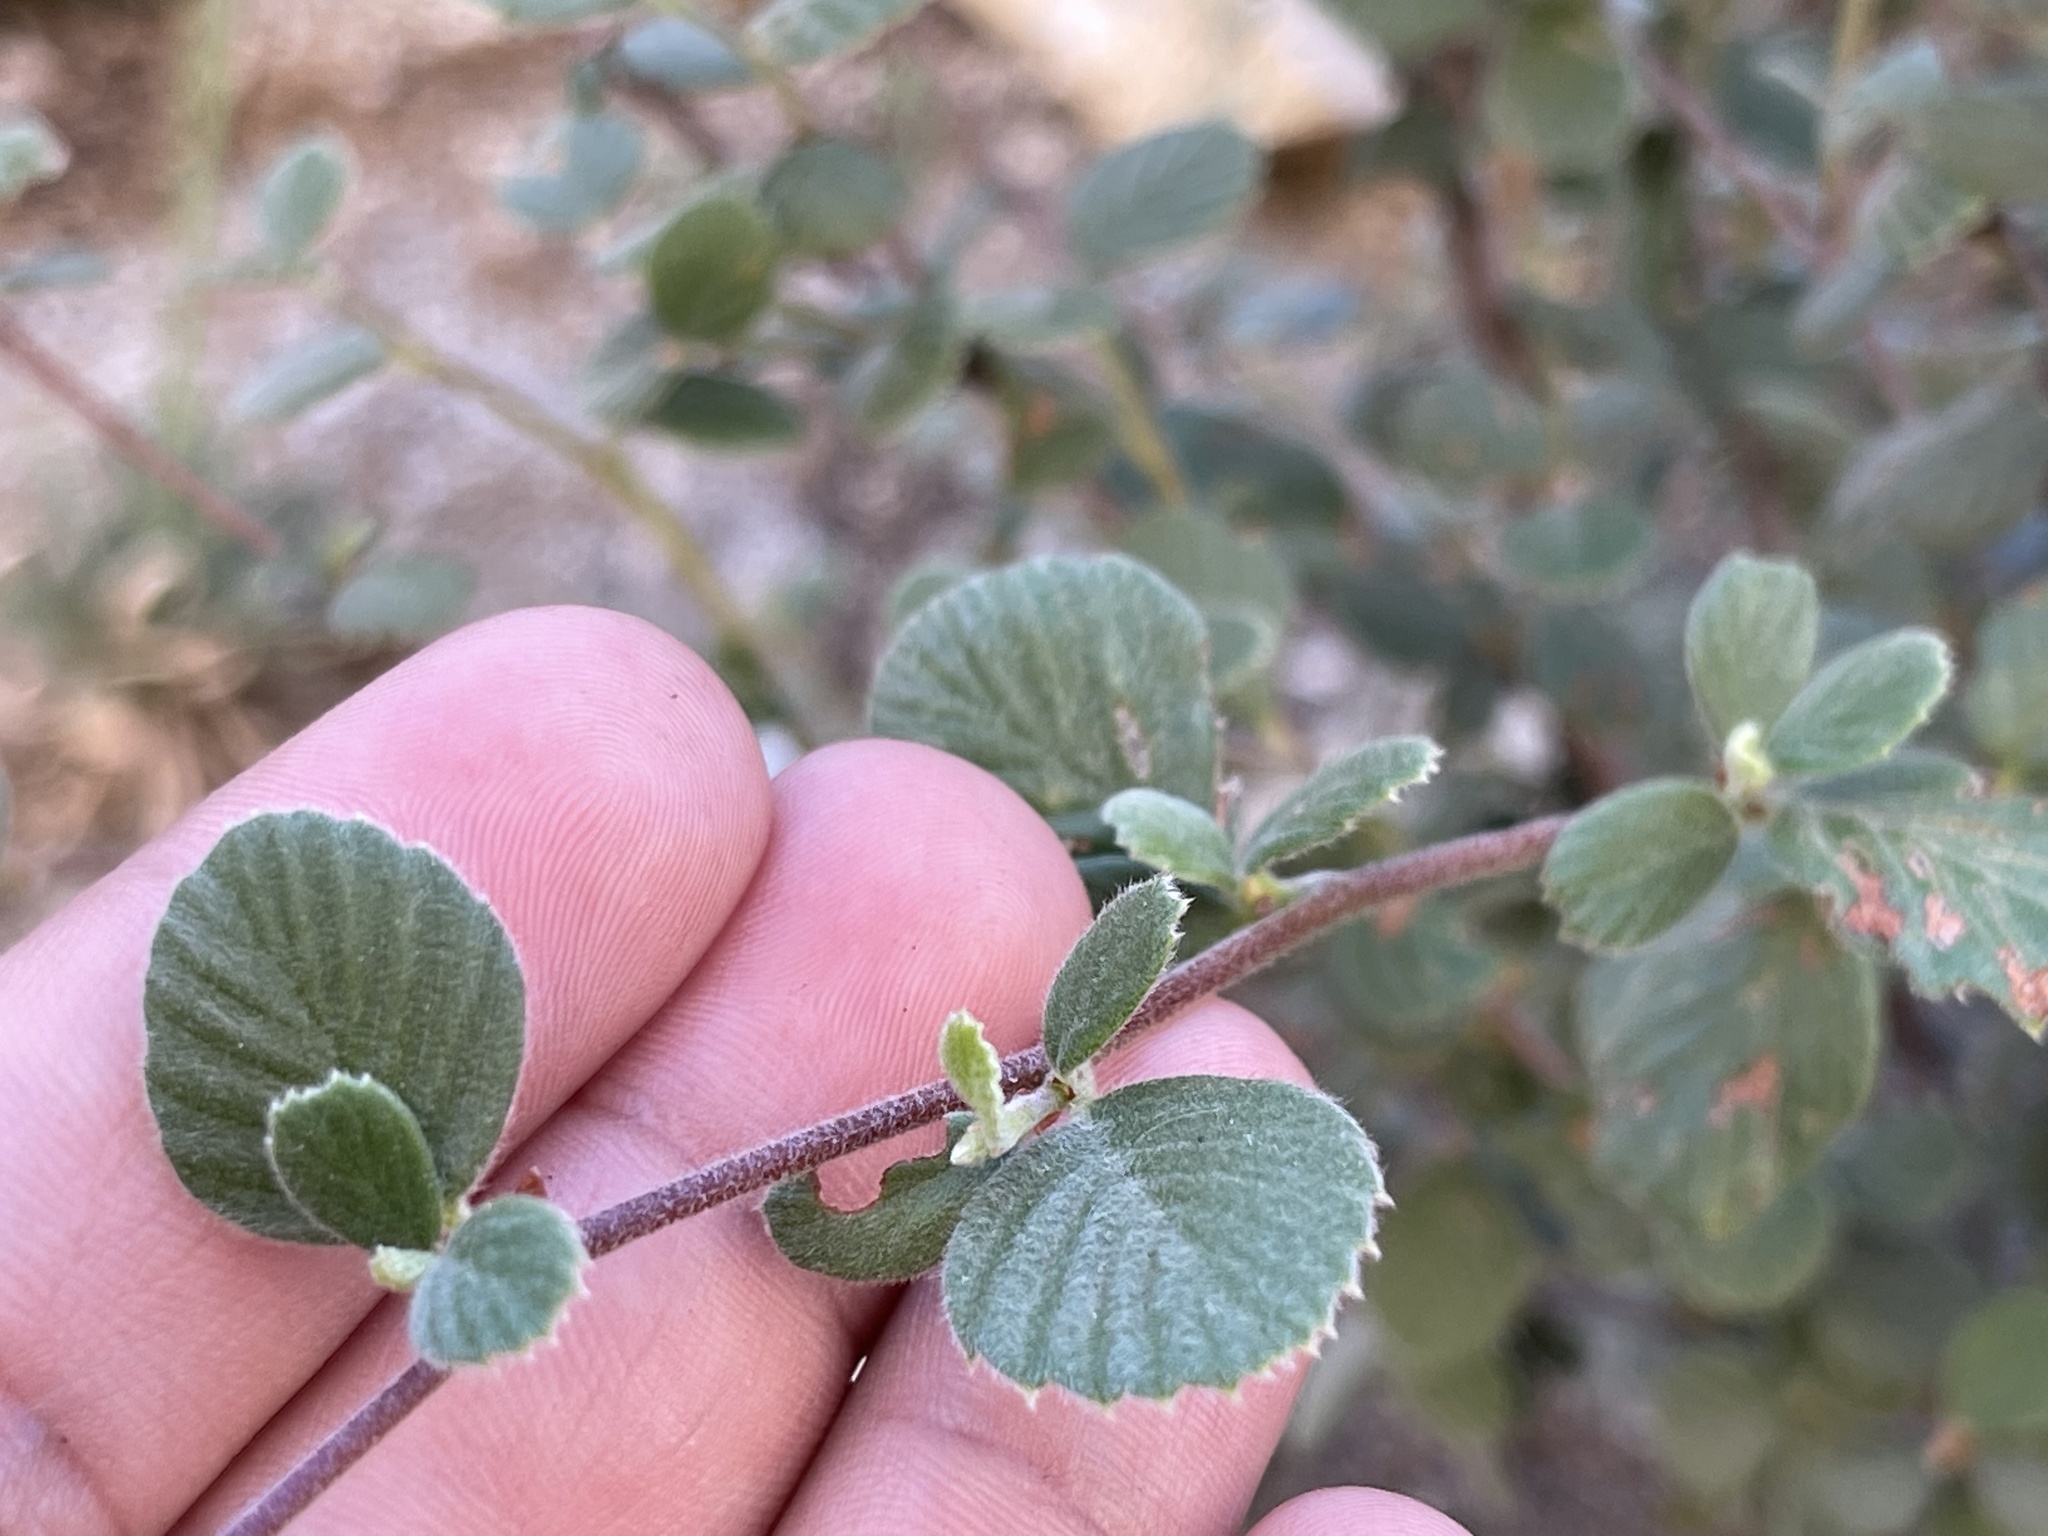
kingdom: Plantae
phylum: Tracheophyta
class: Magnoliopsida
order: Rosales
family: Rosaceae
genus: Cercocarpus
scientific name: Cercocarpus betuloides
